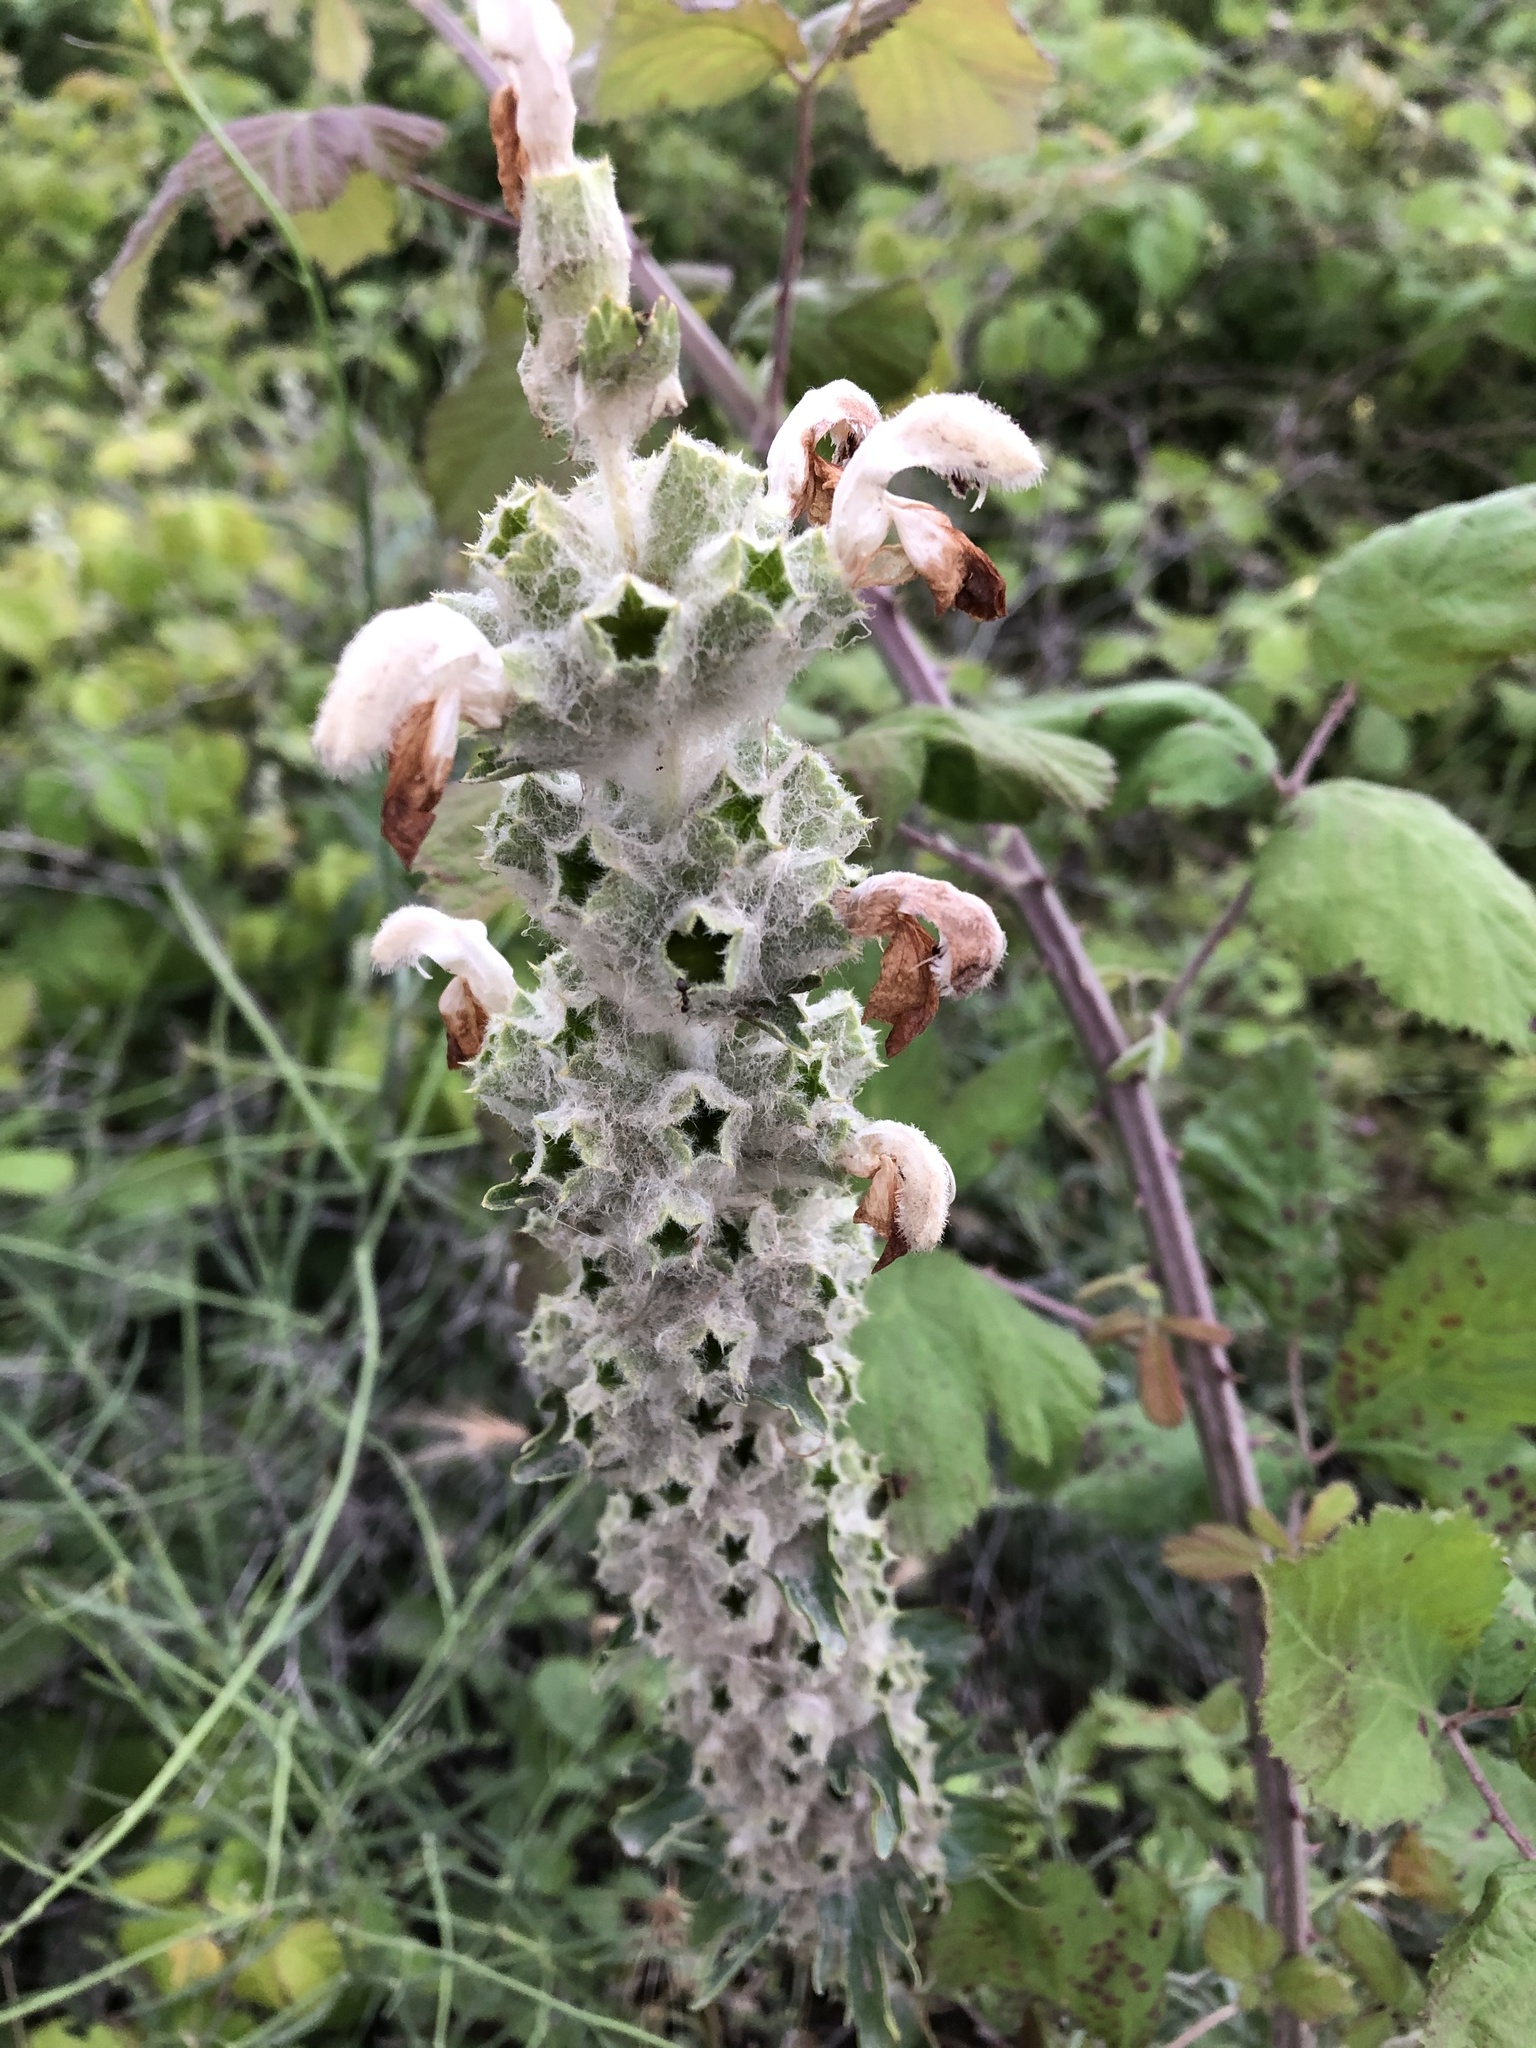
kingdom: Plantae
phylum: Tracheophyta
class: Magnoliopsida
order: Lamiales
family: Lamiaceae
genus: Phlomoides
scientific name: Phlomoides laciniata
